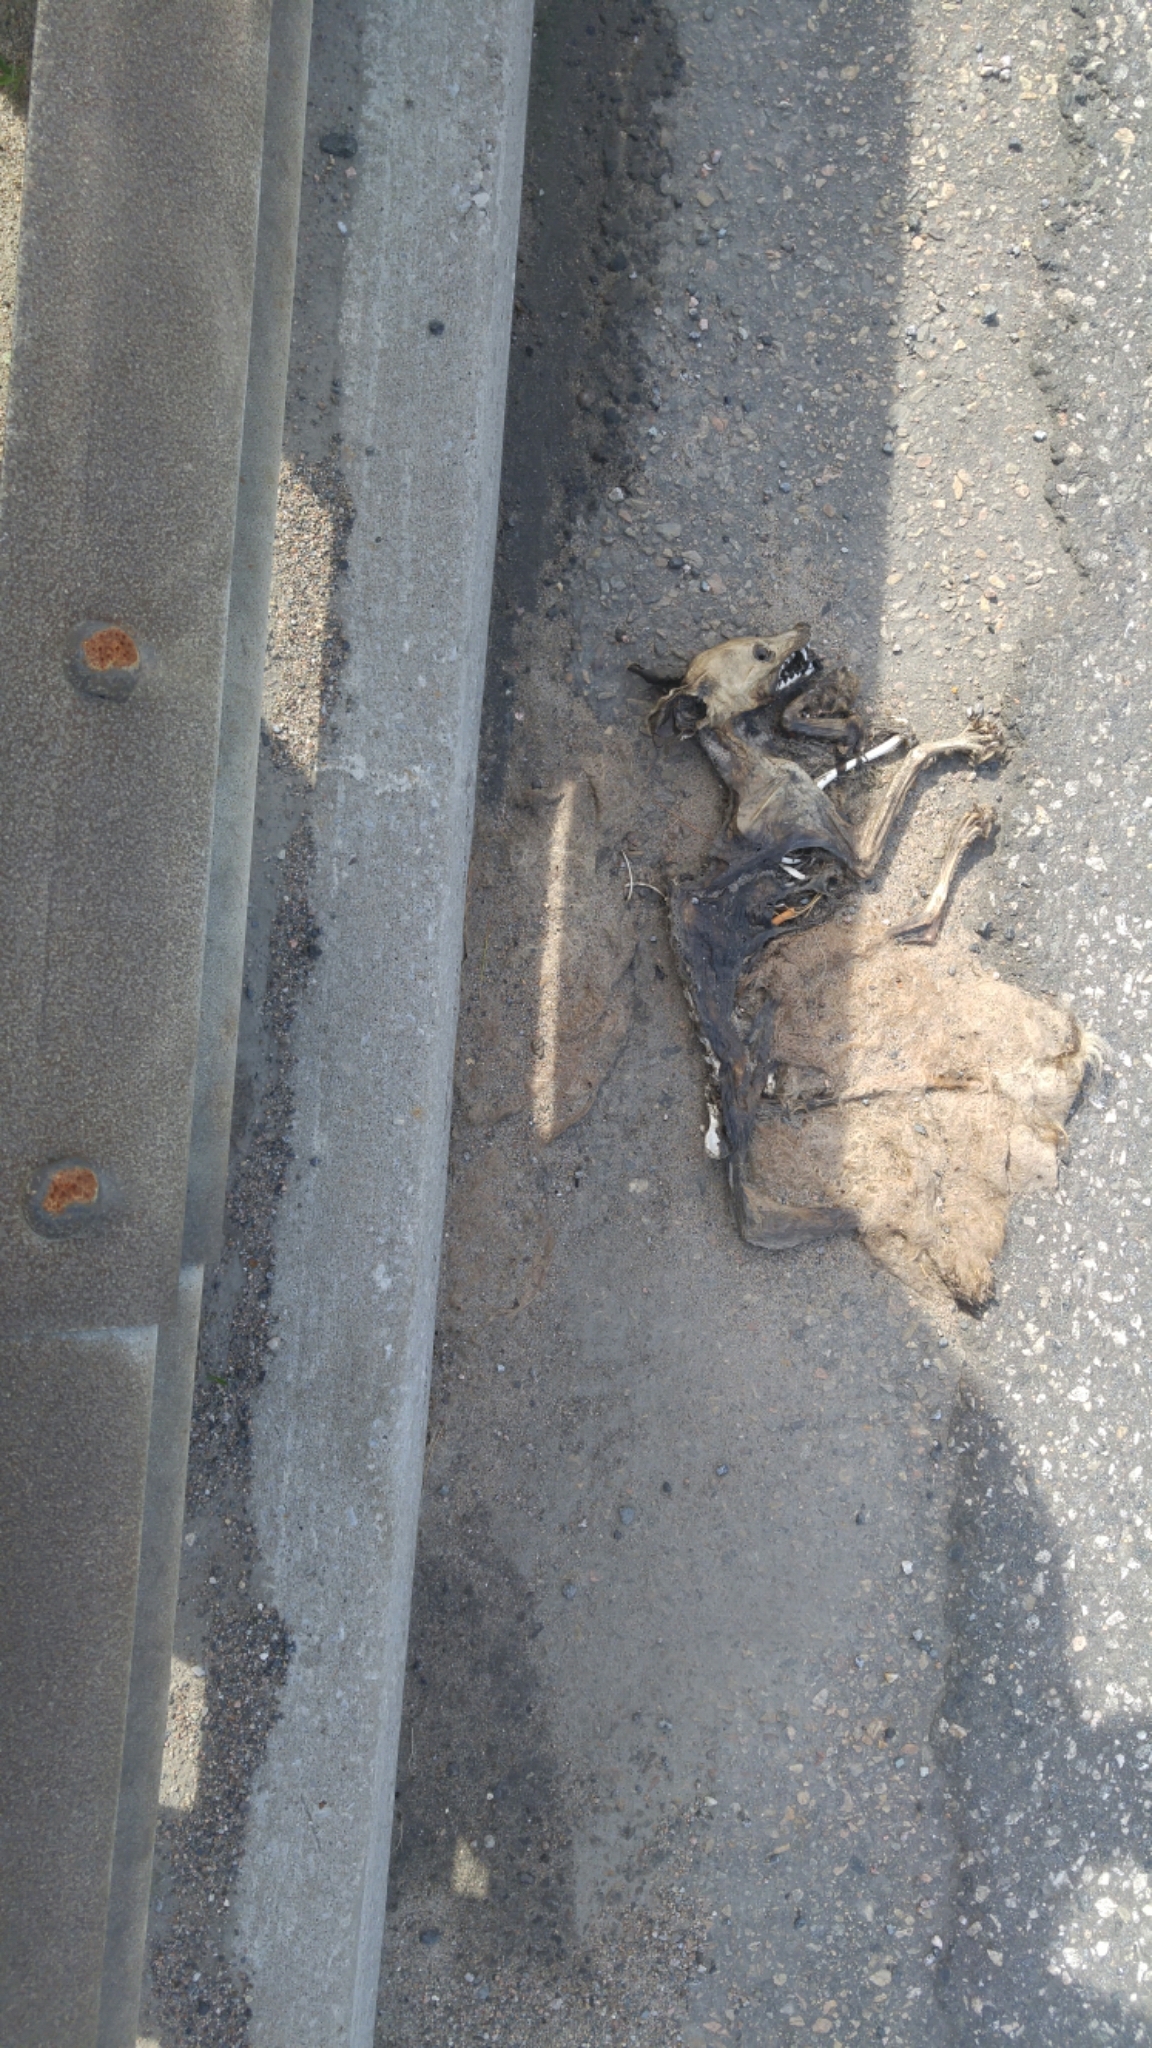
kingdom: Animalia
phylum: Chordata
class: Mammalia
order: Carnivora
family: Canidae
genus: Vulpes
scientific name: Vulpes vulpes
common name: Red fox
